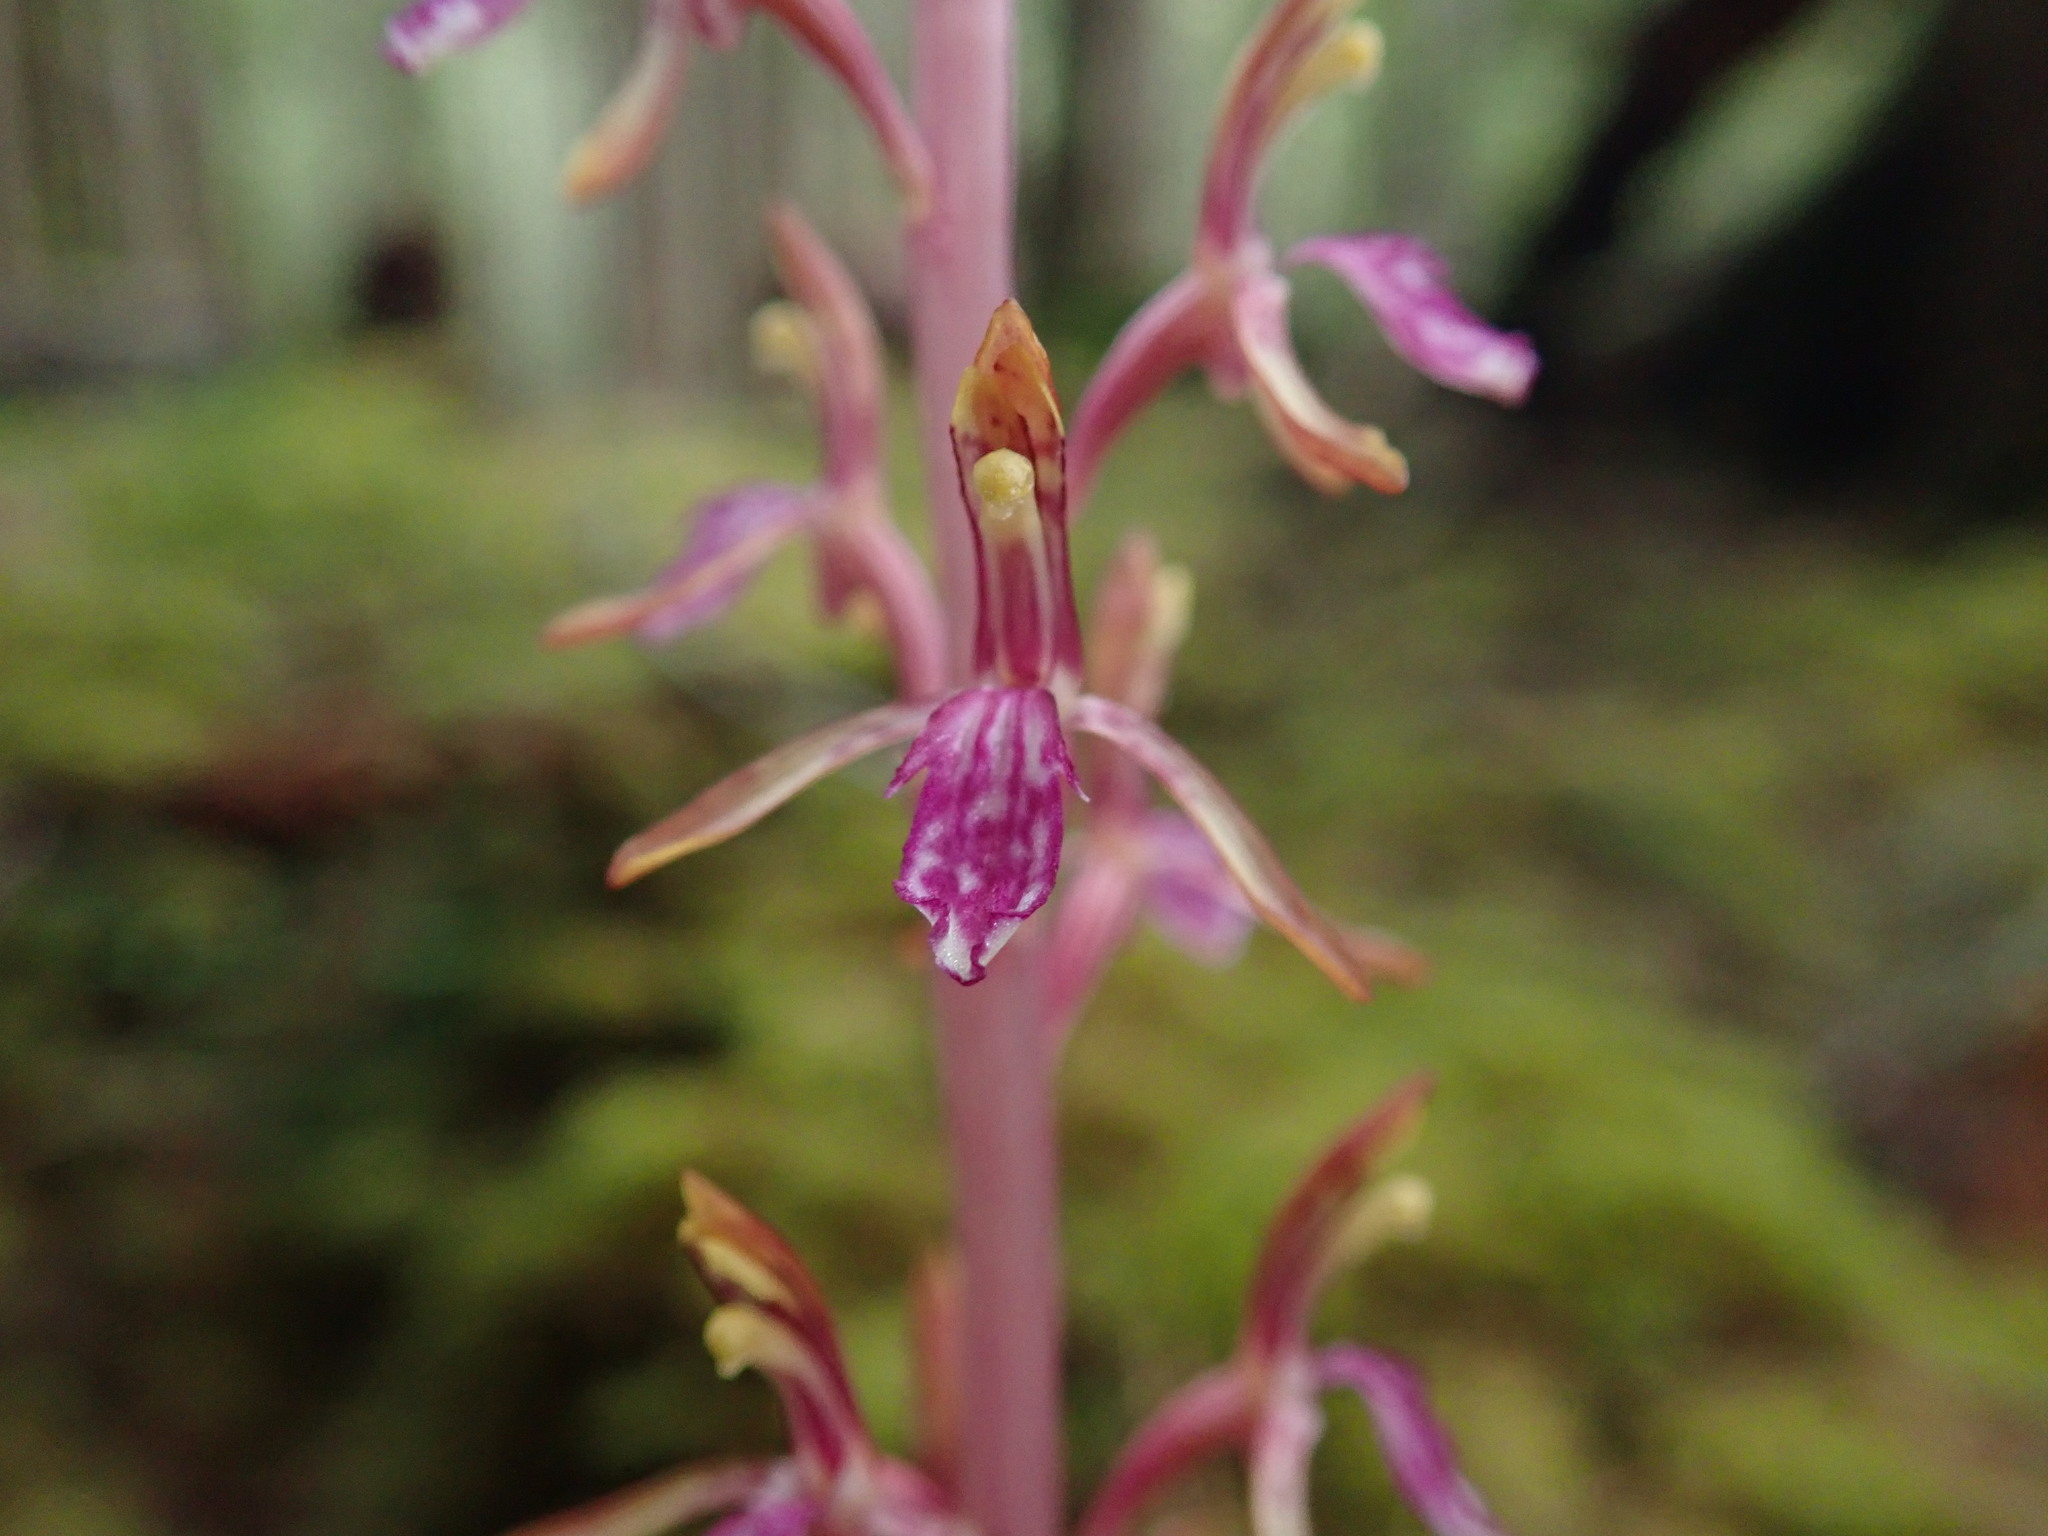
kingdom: Plantae
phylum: Tracheophyta
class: Liliopsida
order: Asparagales
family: Orchidaceae
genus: Corallorhiza
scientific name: Corallorhiza mertensiana
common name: Pacific coralroot
